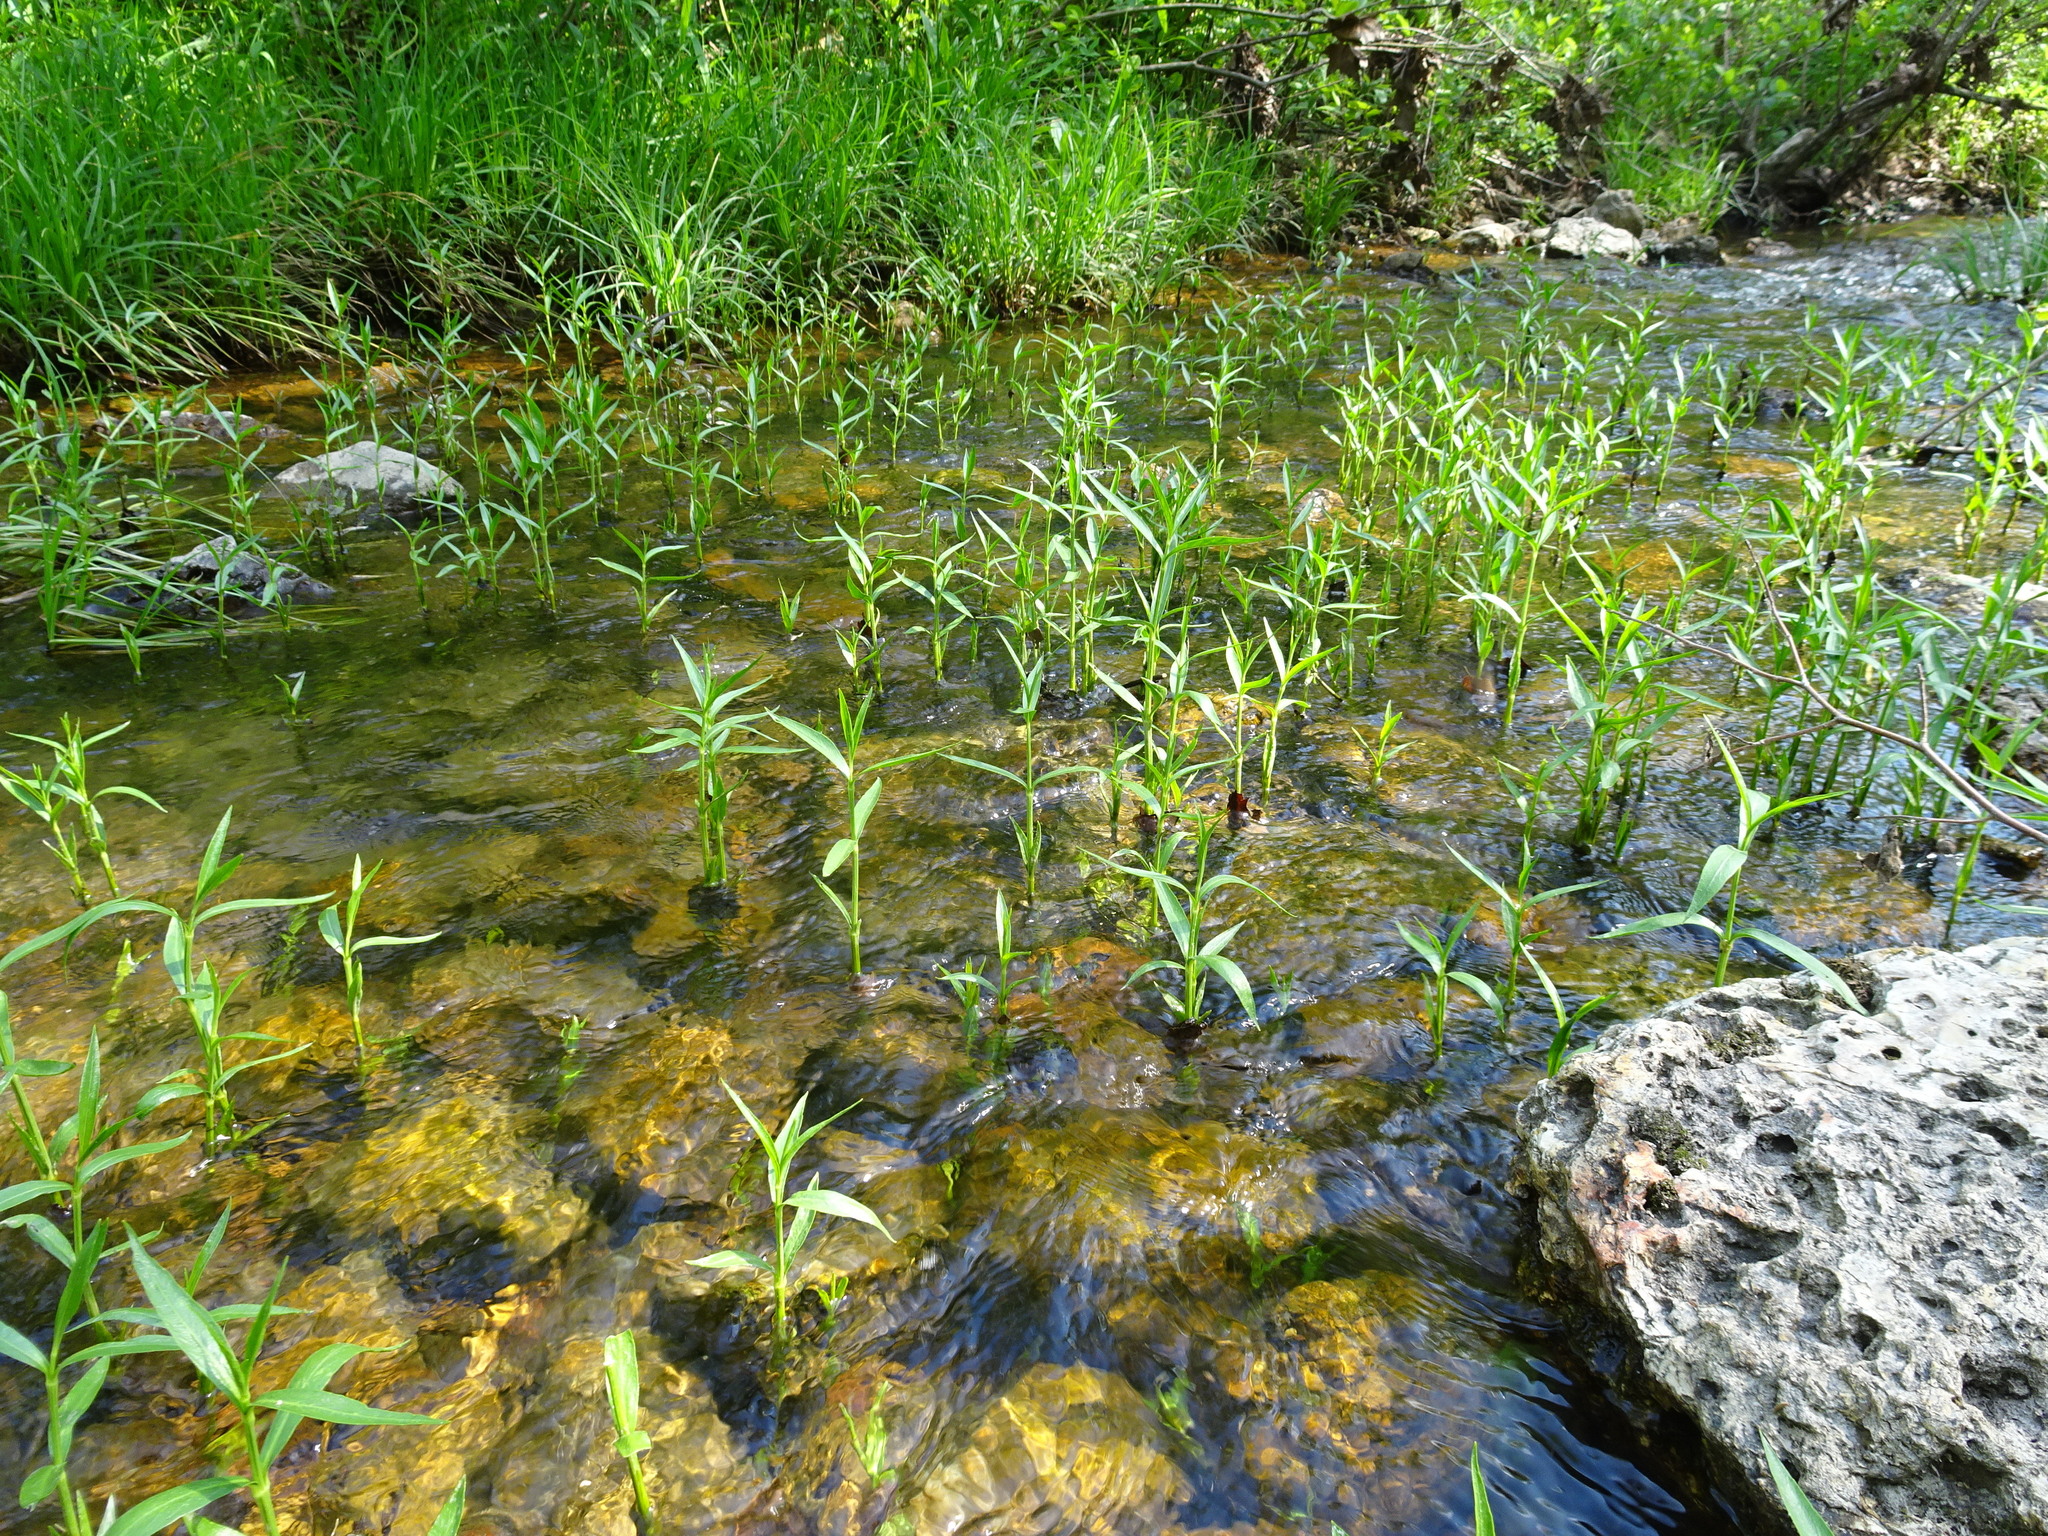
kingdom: Plantae
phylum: Tracheophyta
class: Magnoliopsida
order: Lamiales
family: Acanthaceae
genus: Dianthera
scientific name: Dianthera americana
